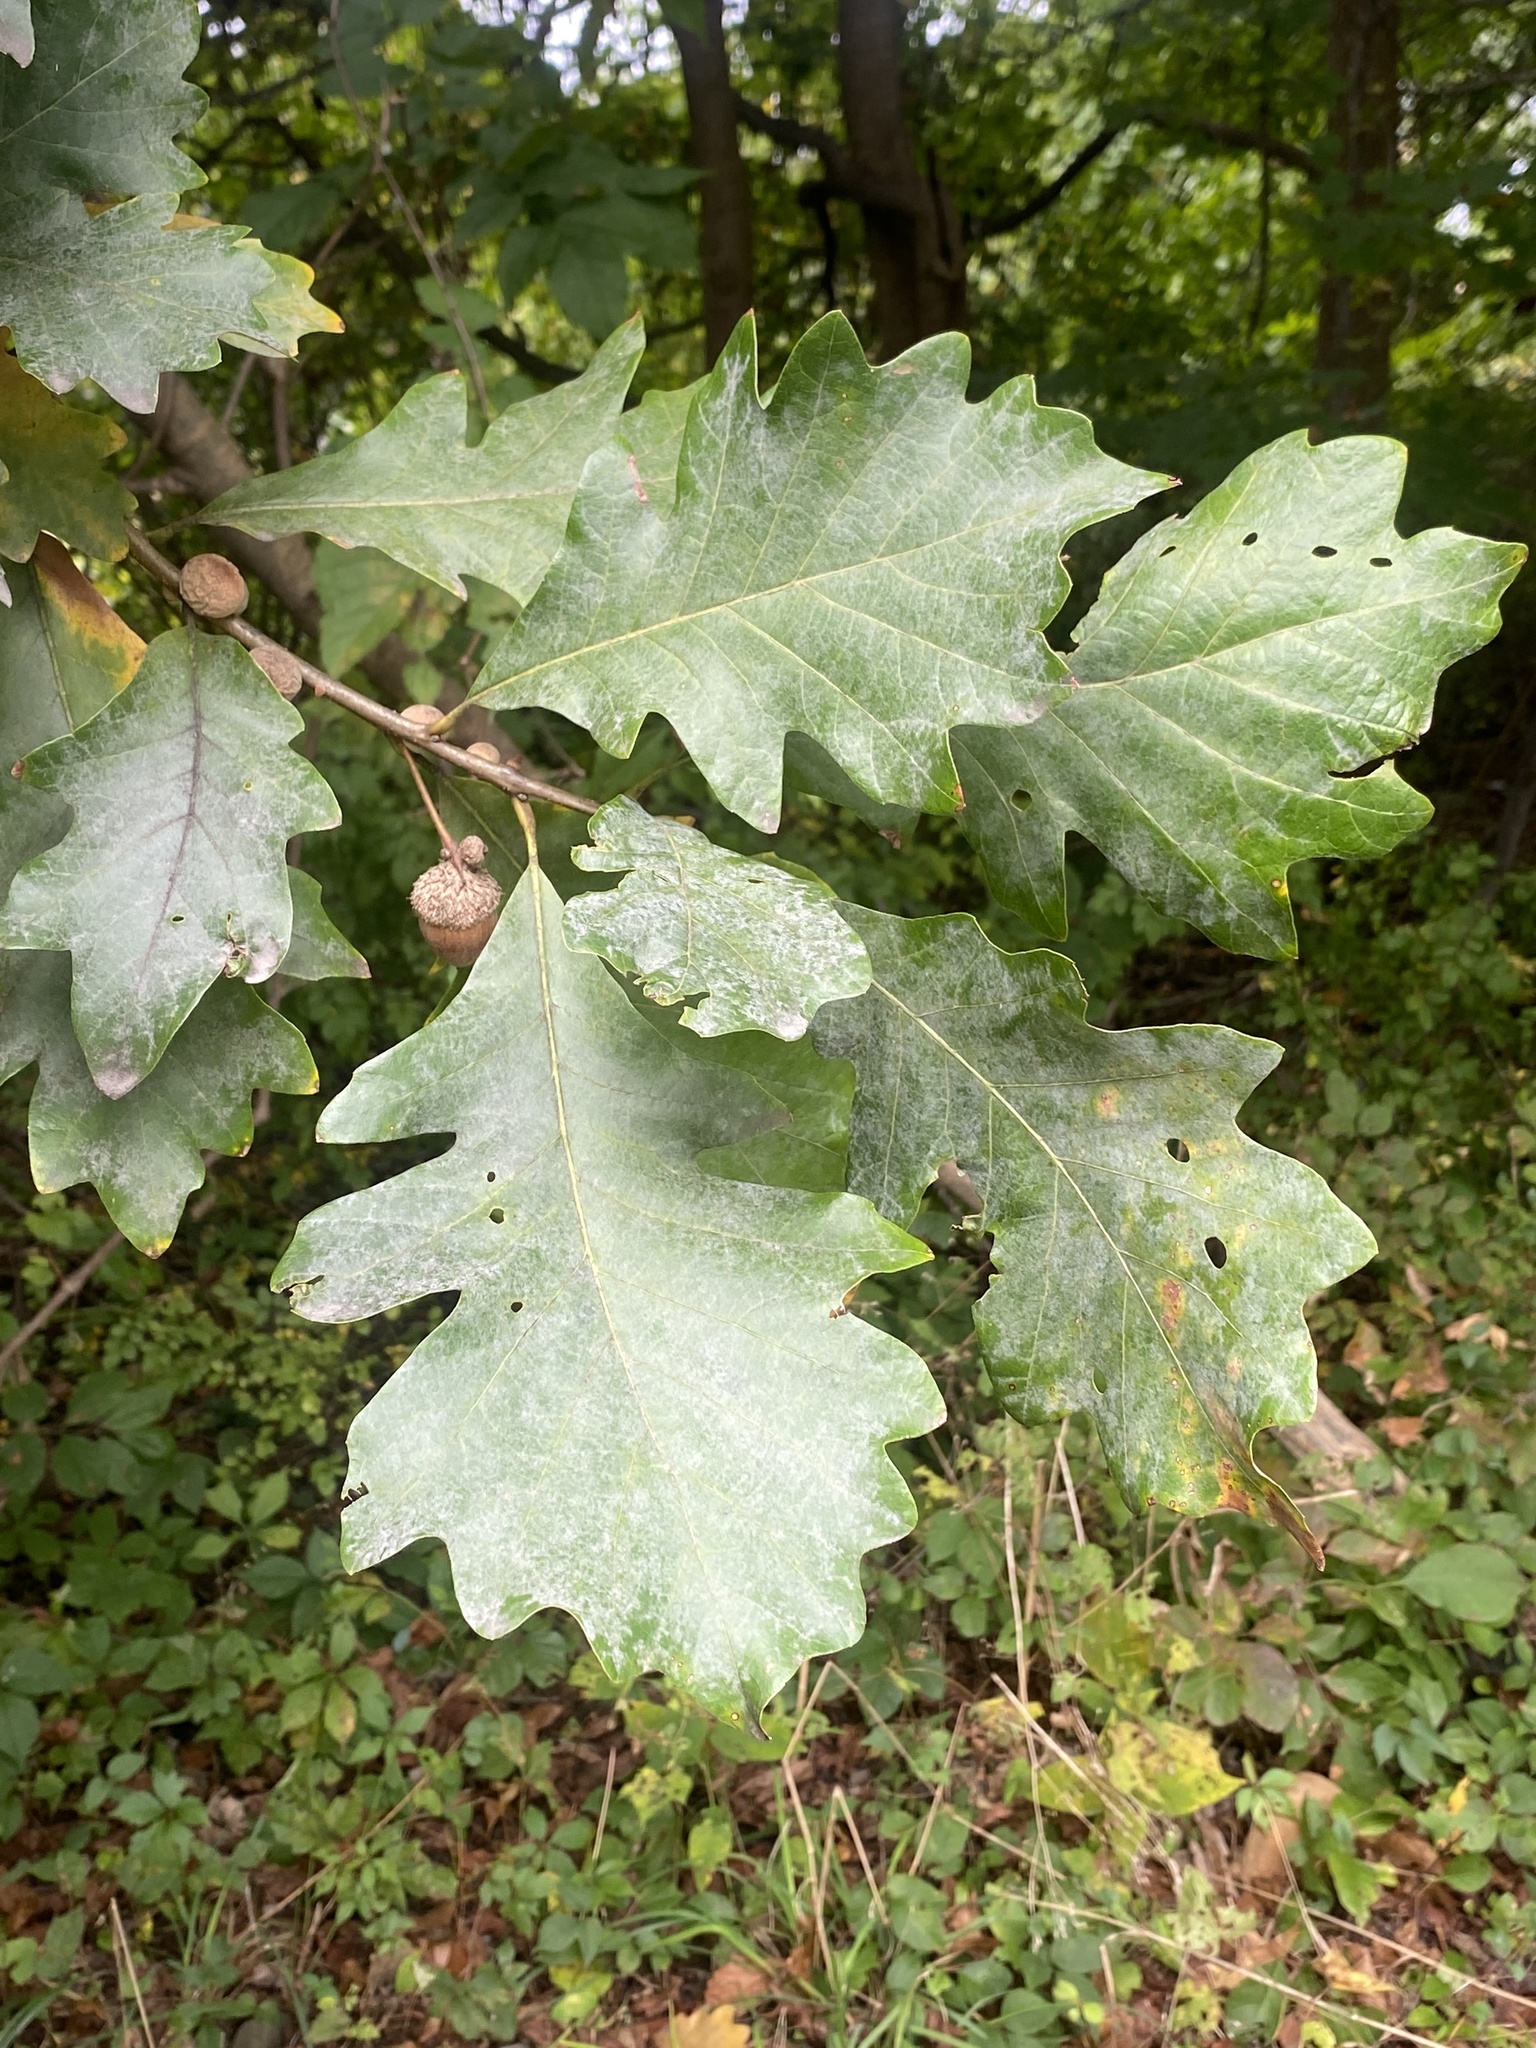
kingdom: Plantae
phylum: Tracheophyta
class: Magnoliopsida
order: Fagales
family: Fagaceae
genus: Quercus
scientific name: Quercus bicolor
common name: Swamp white oak
